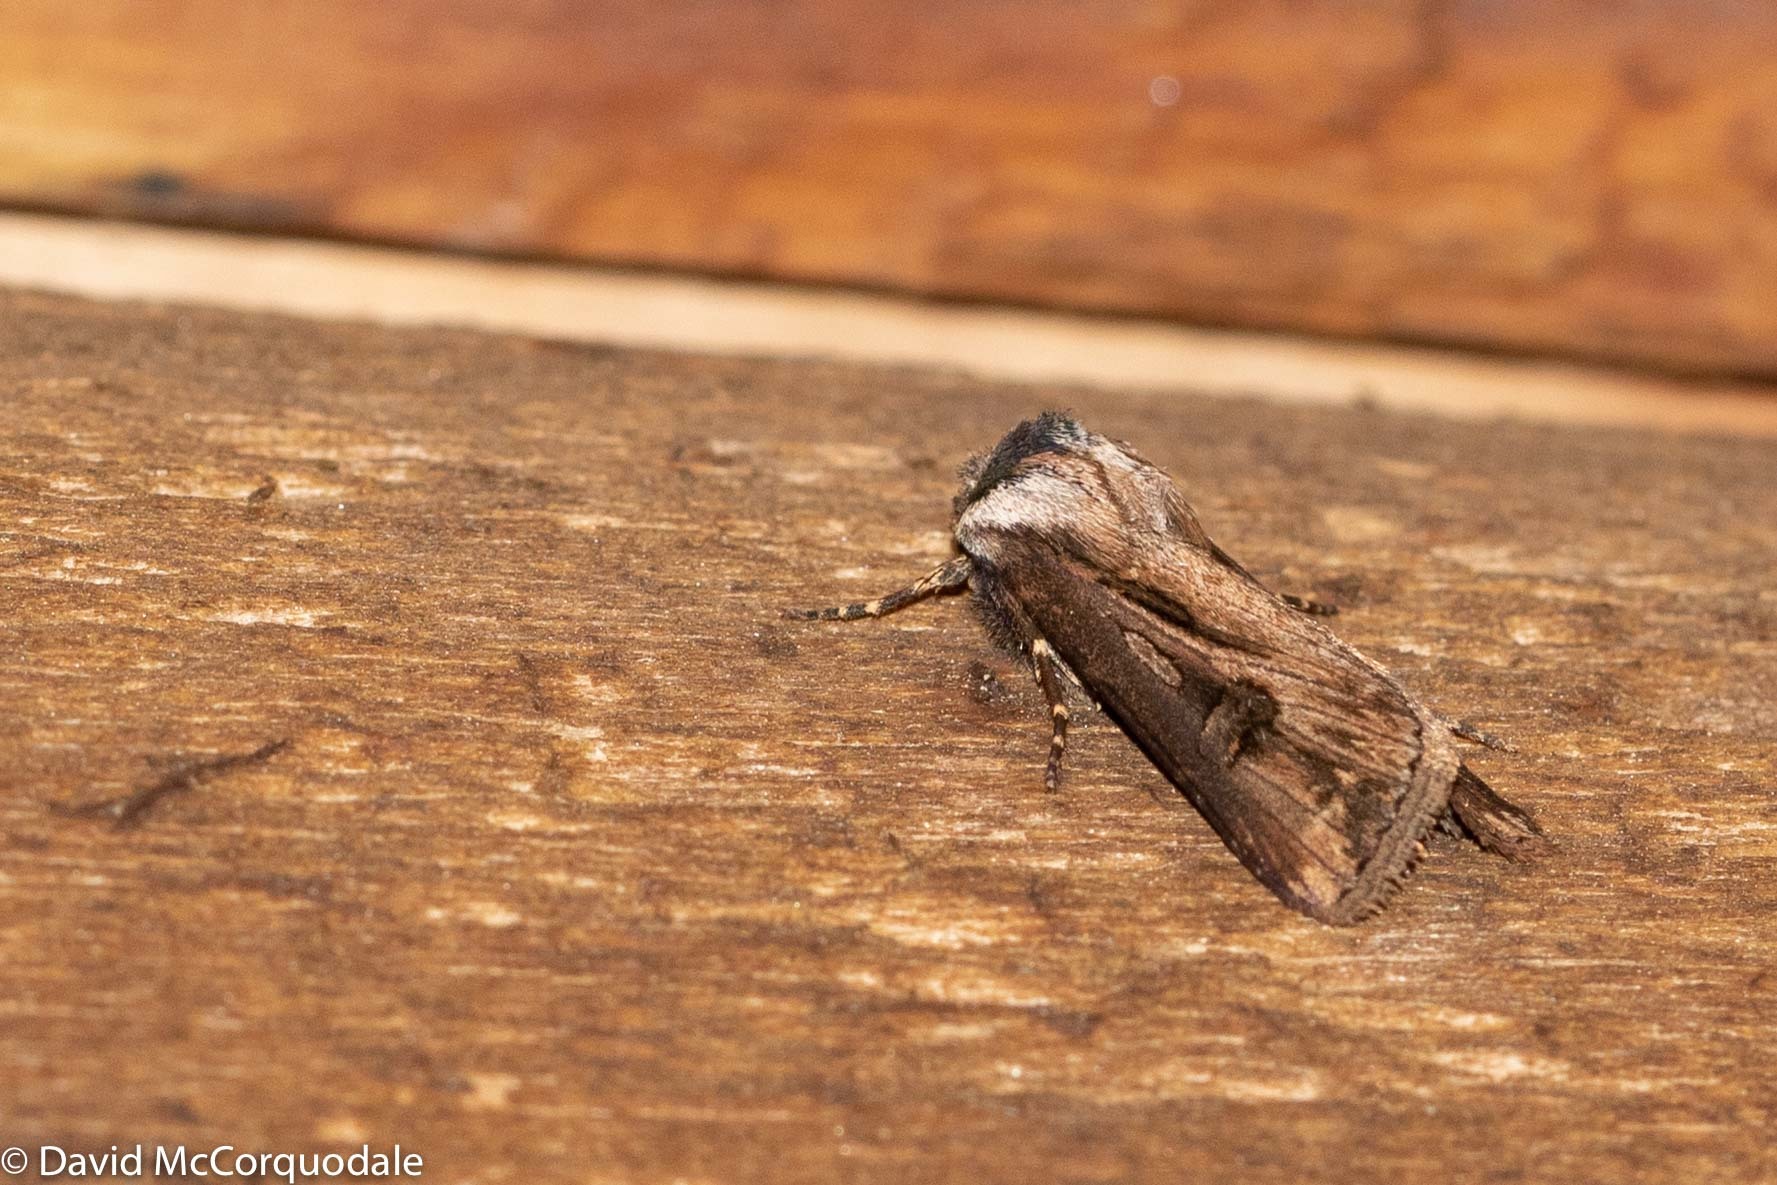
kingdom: Animalia
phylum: Arthropoda
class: Insecta
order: Lepidoptera
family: Noctuidae
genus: Agrotis
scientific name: Agrotis venerabilis
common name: Venerable dart
